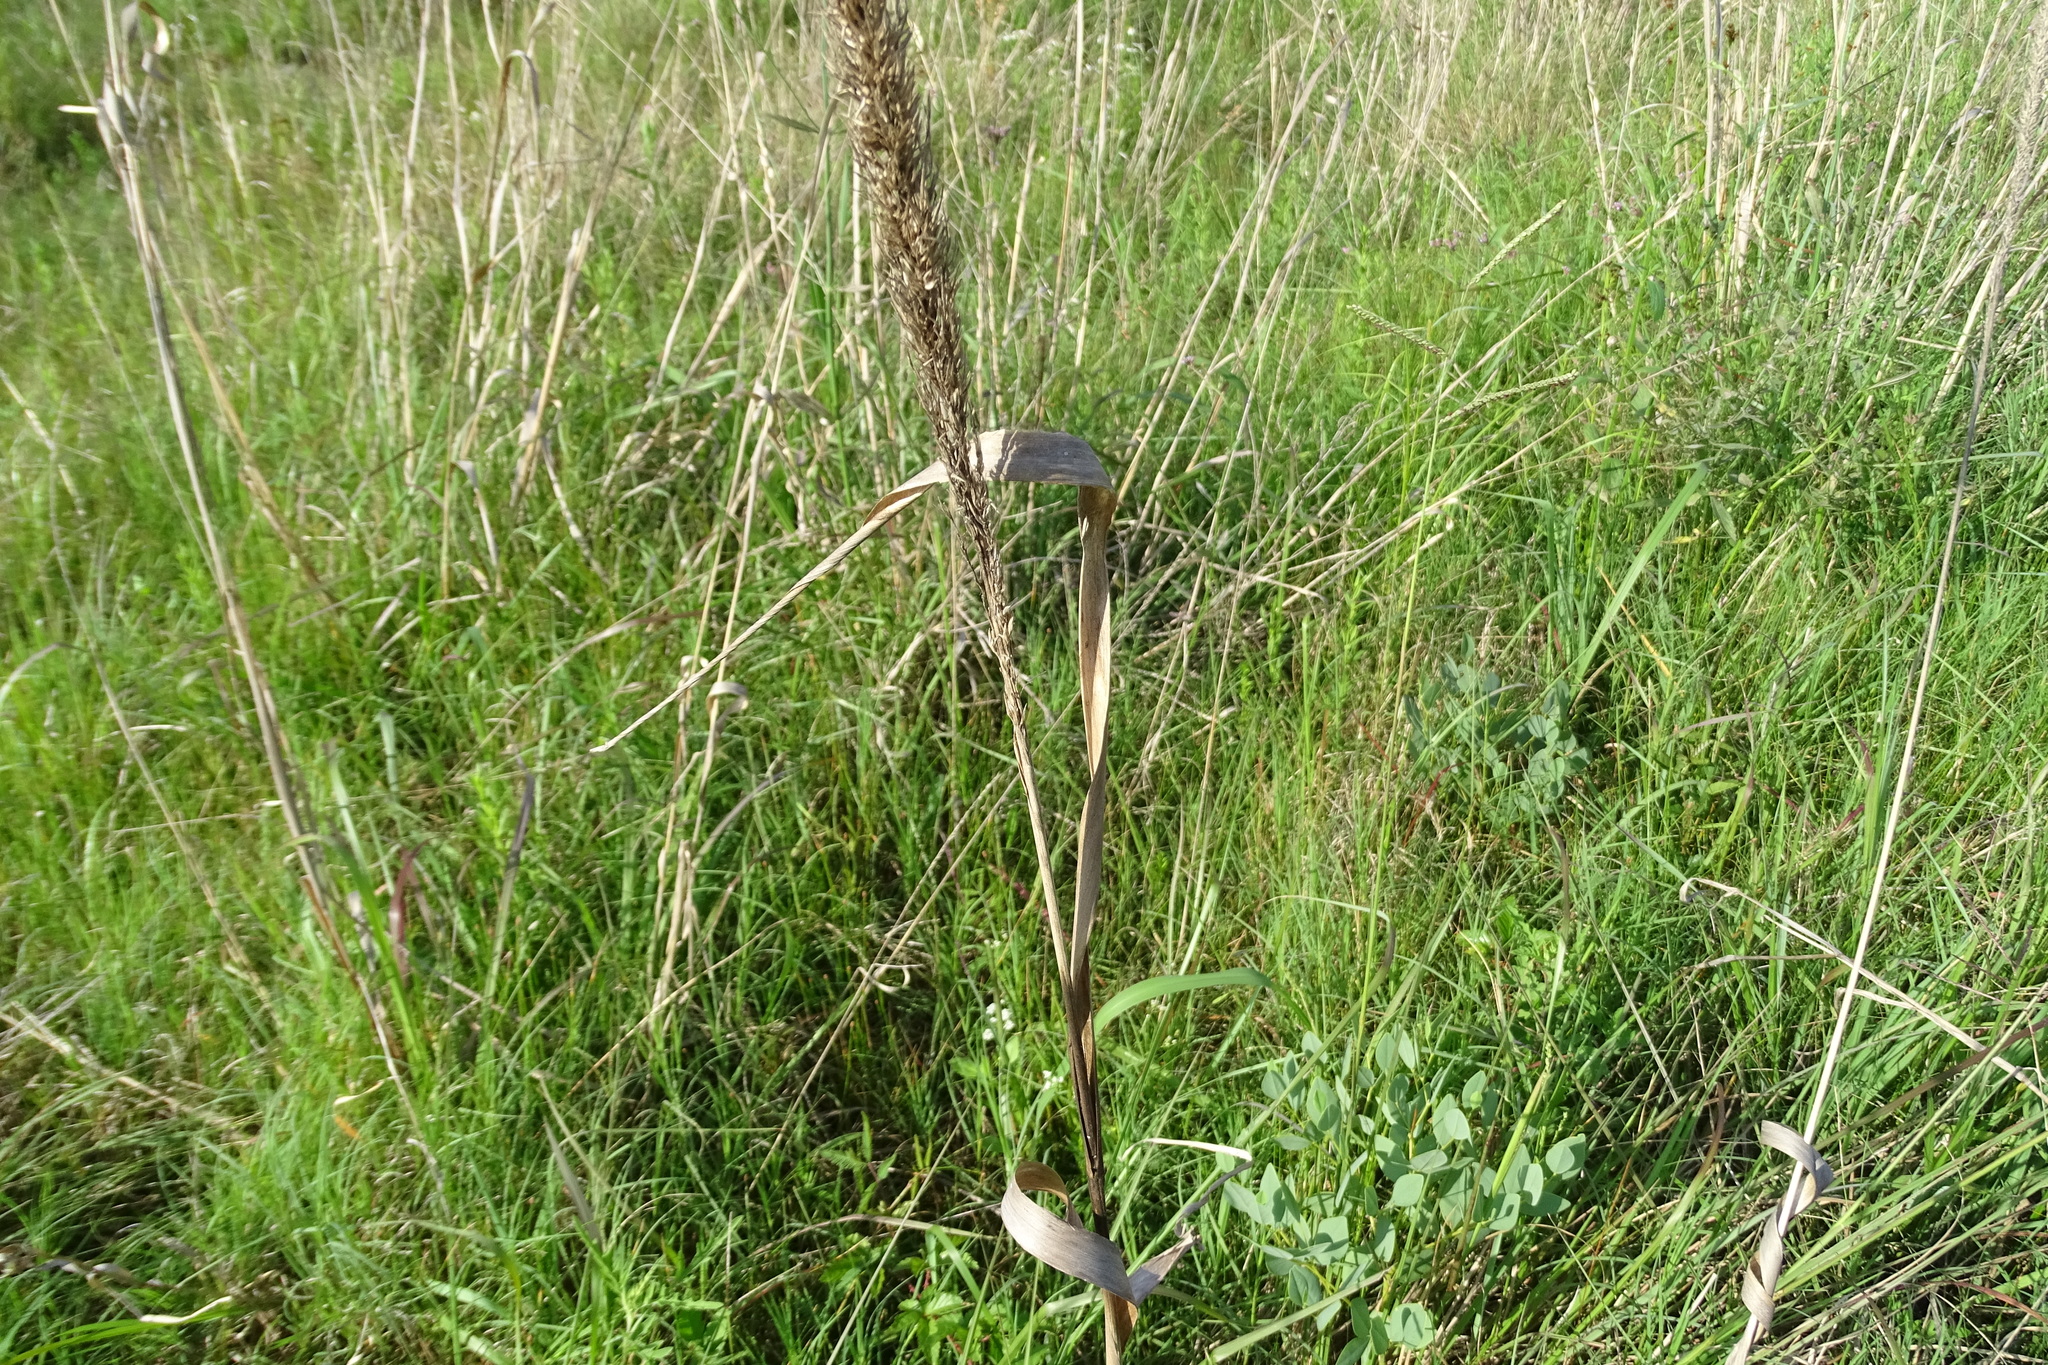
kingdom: Plantae
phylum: Tracheophyta
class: Liliopsida
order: Poales
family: Poaceae
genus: Tridens
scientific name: Tridens strictus
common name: Long-spike tridens
